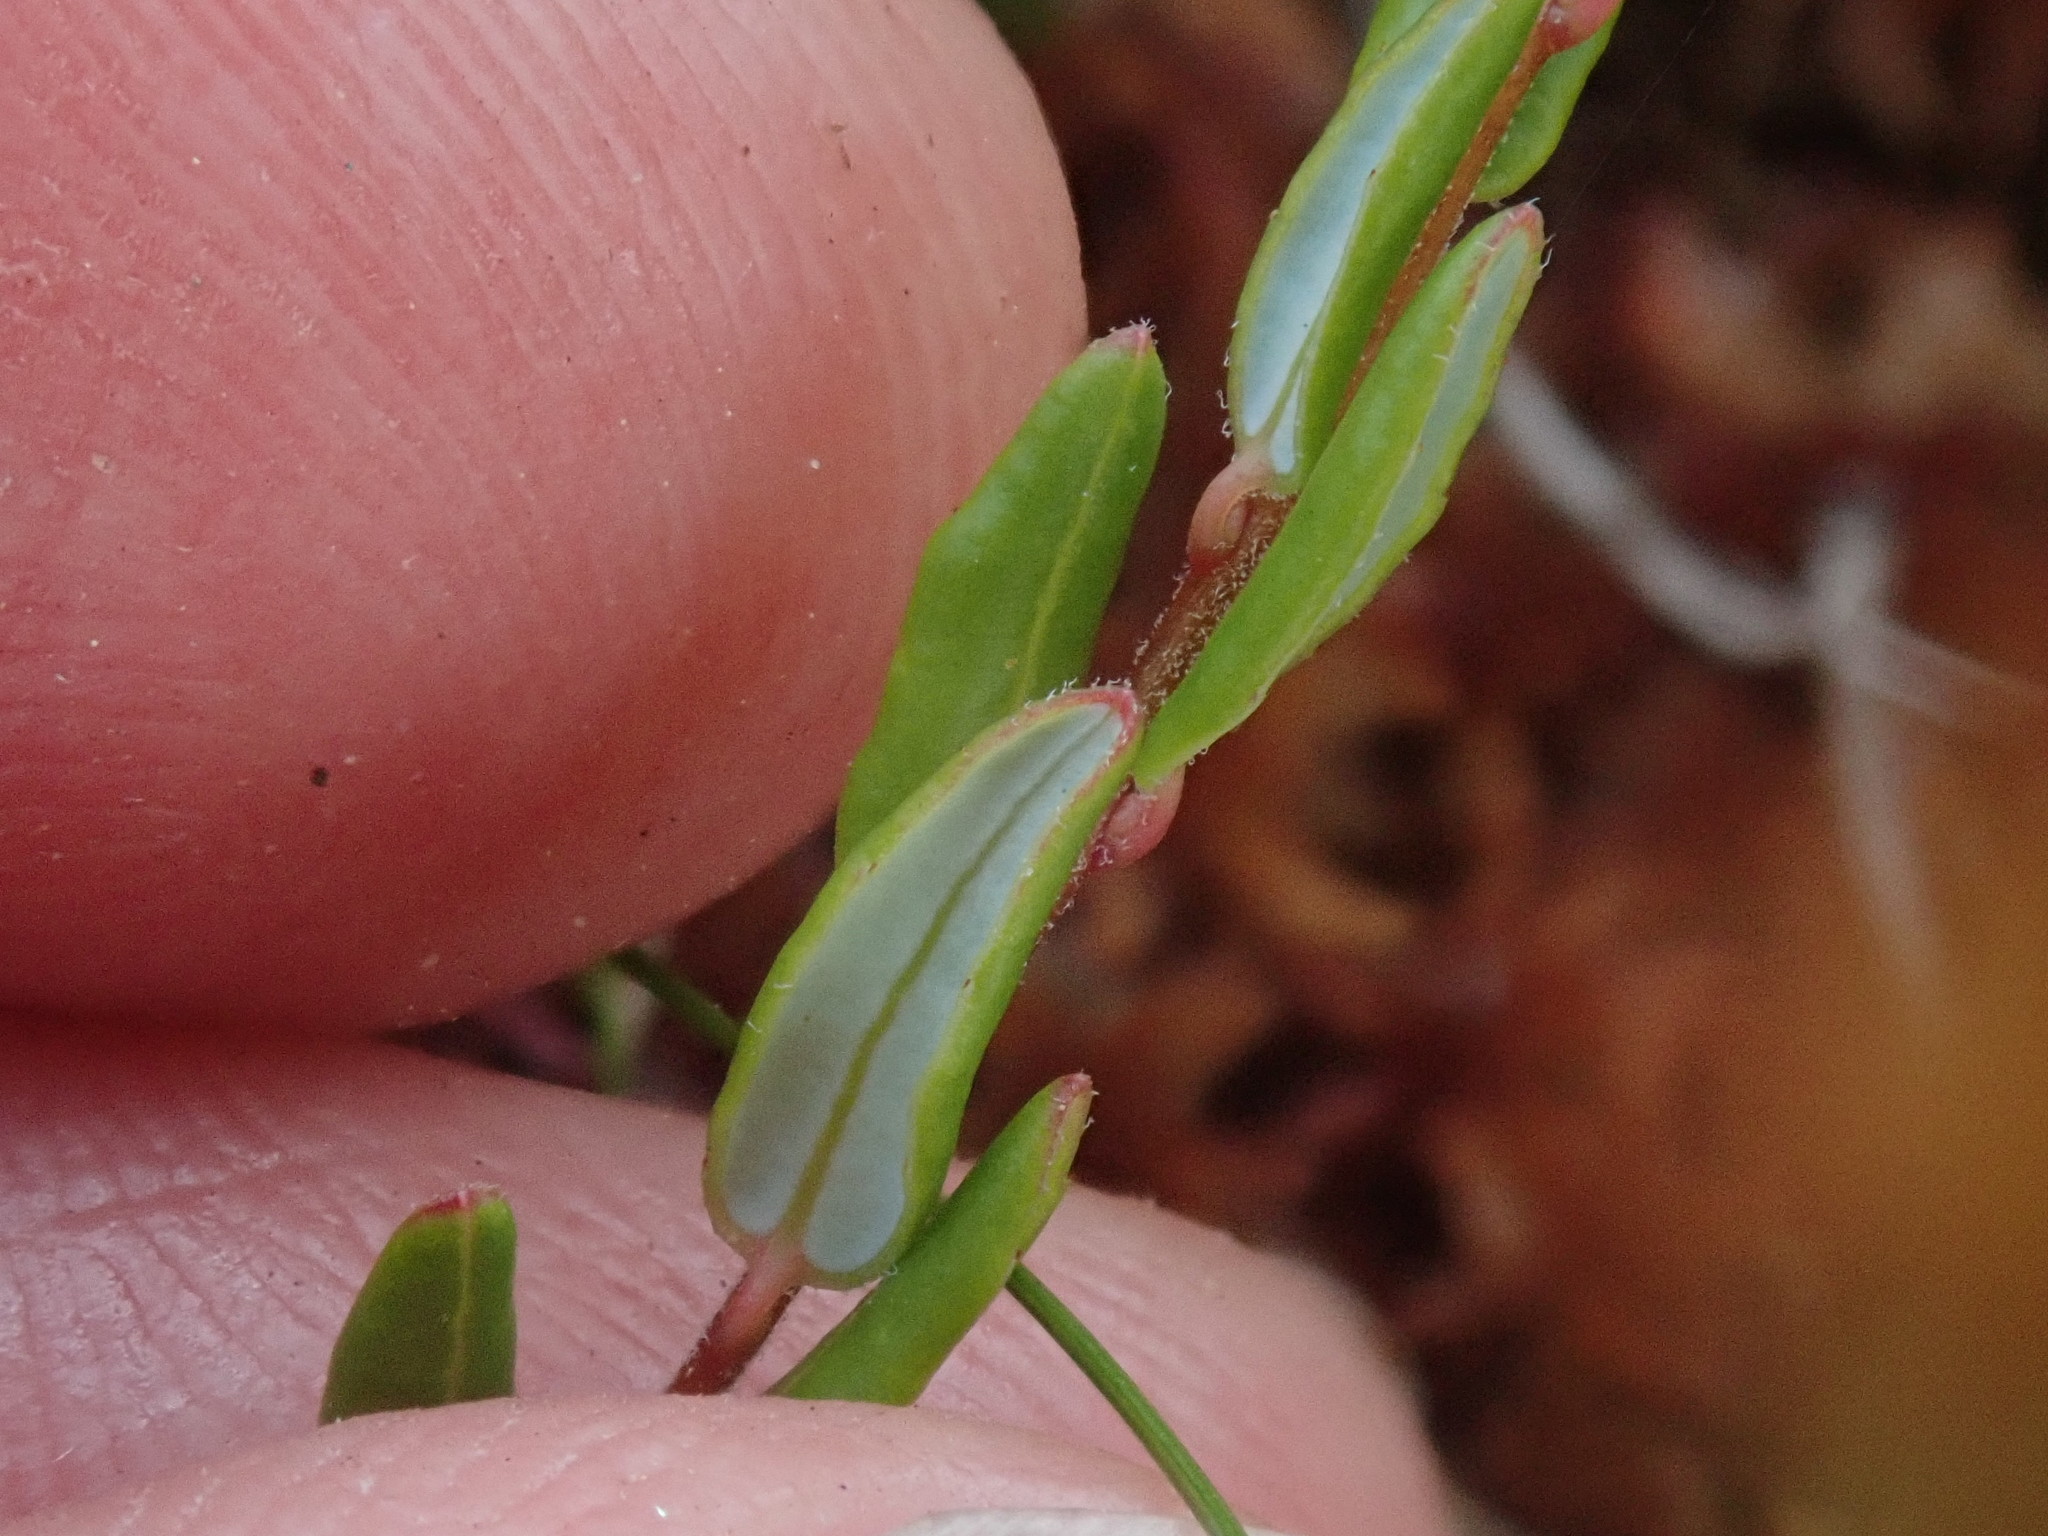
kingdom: Plantae
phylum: Tracheophyta
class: Magnoliopsida
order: Ericales
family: Ericaceae
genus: Vaccinium
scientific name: Vaccinium oxycoccos
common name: Cranberry
